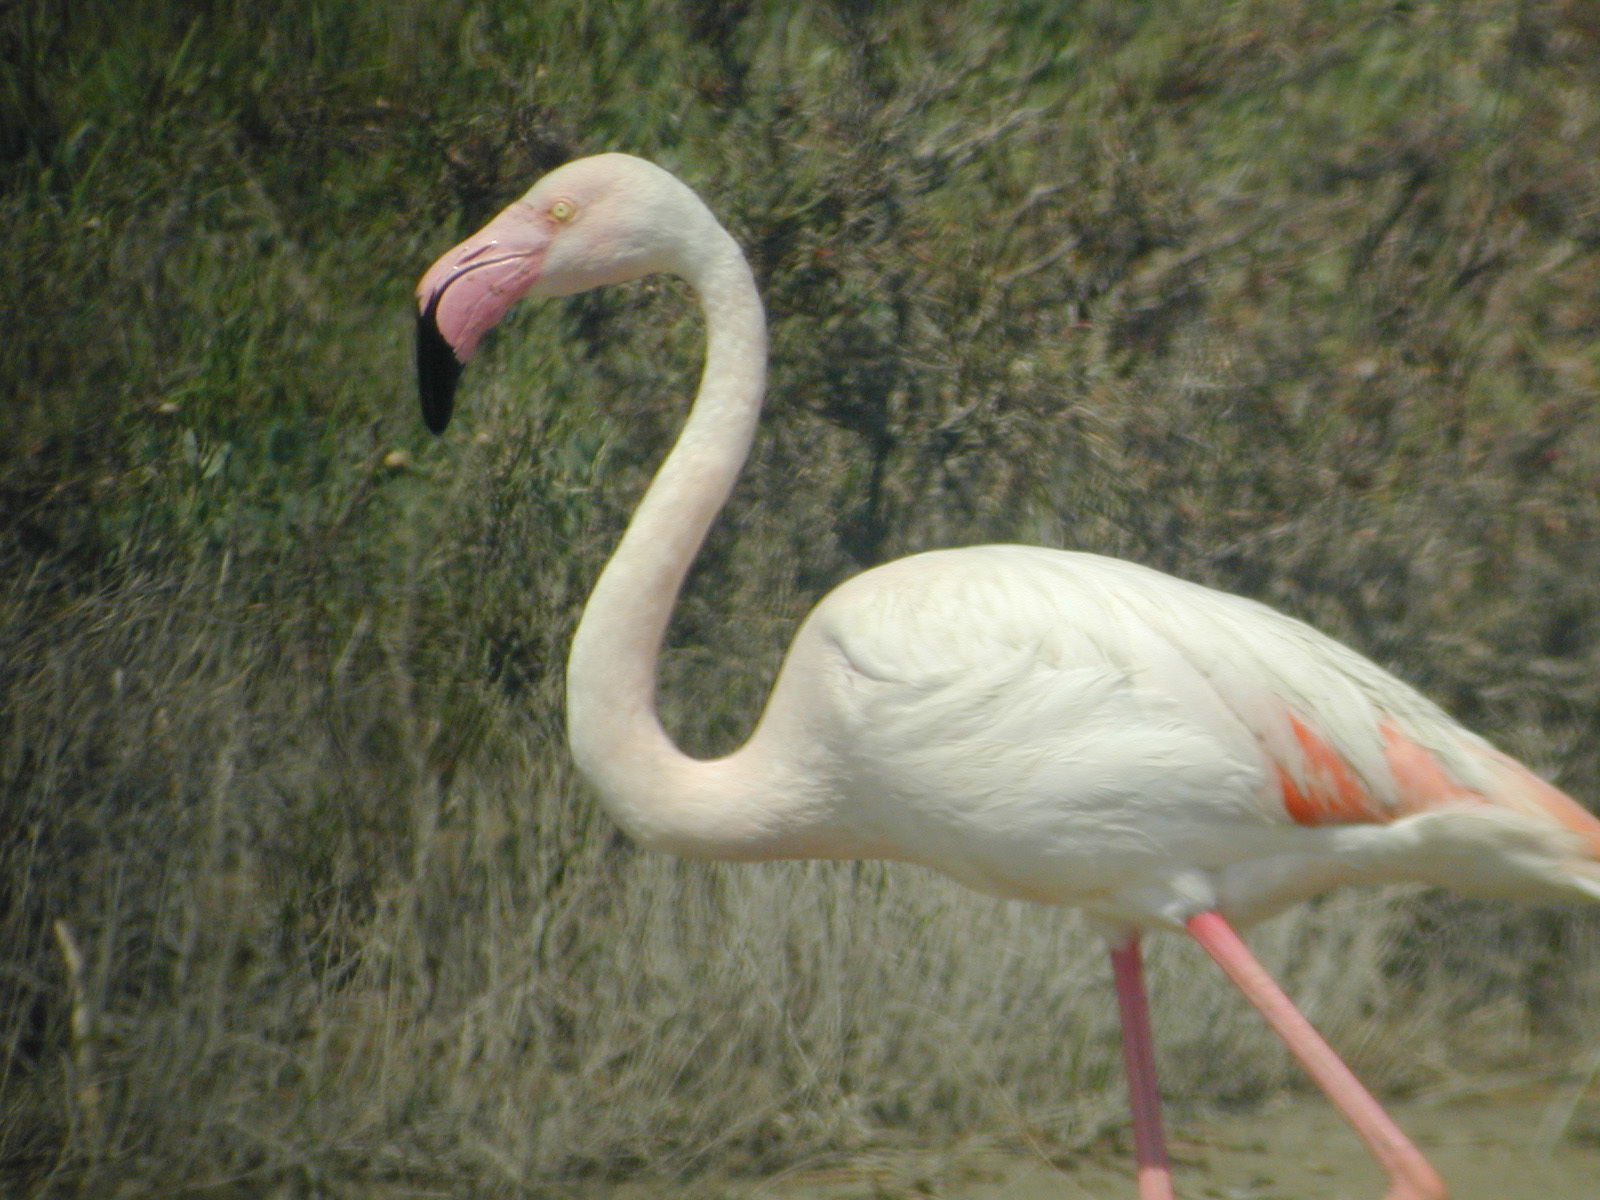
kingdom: Animalia
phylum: Chordata
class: Aves
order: Phoenicopteriformes
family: Phoenicopteridae
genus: Phoenicopterus
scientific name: Phoenicopterus roseus
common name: Greater flamingo
